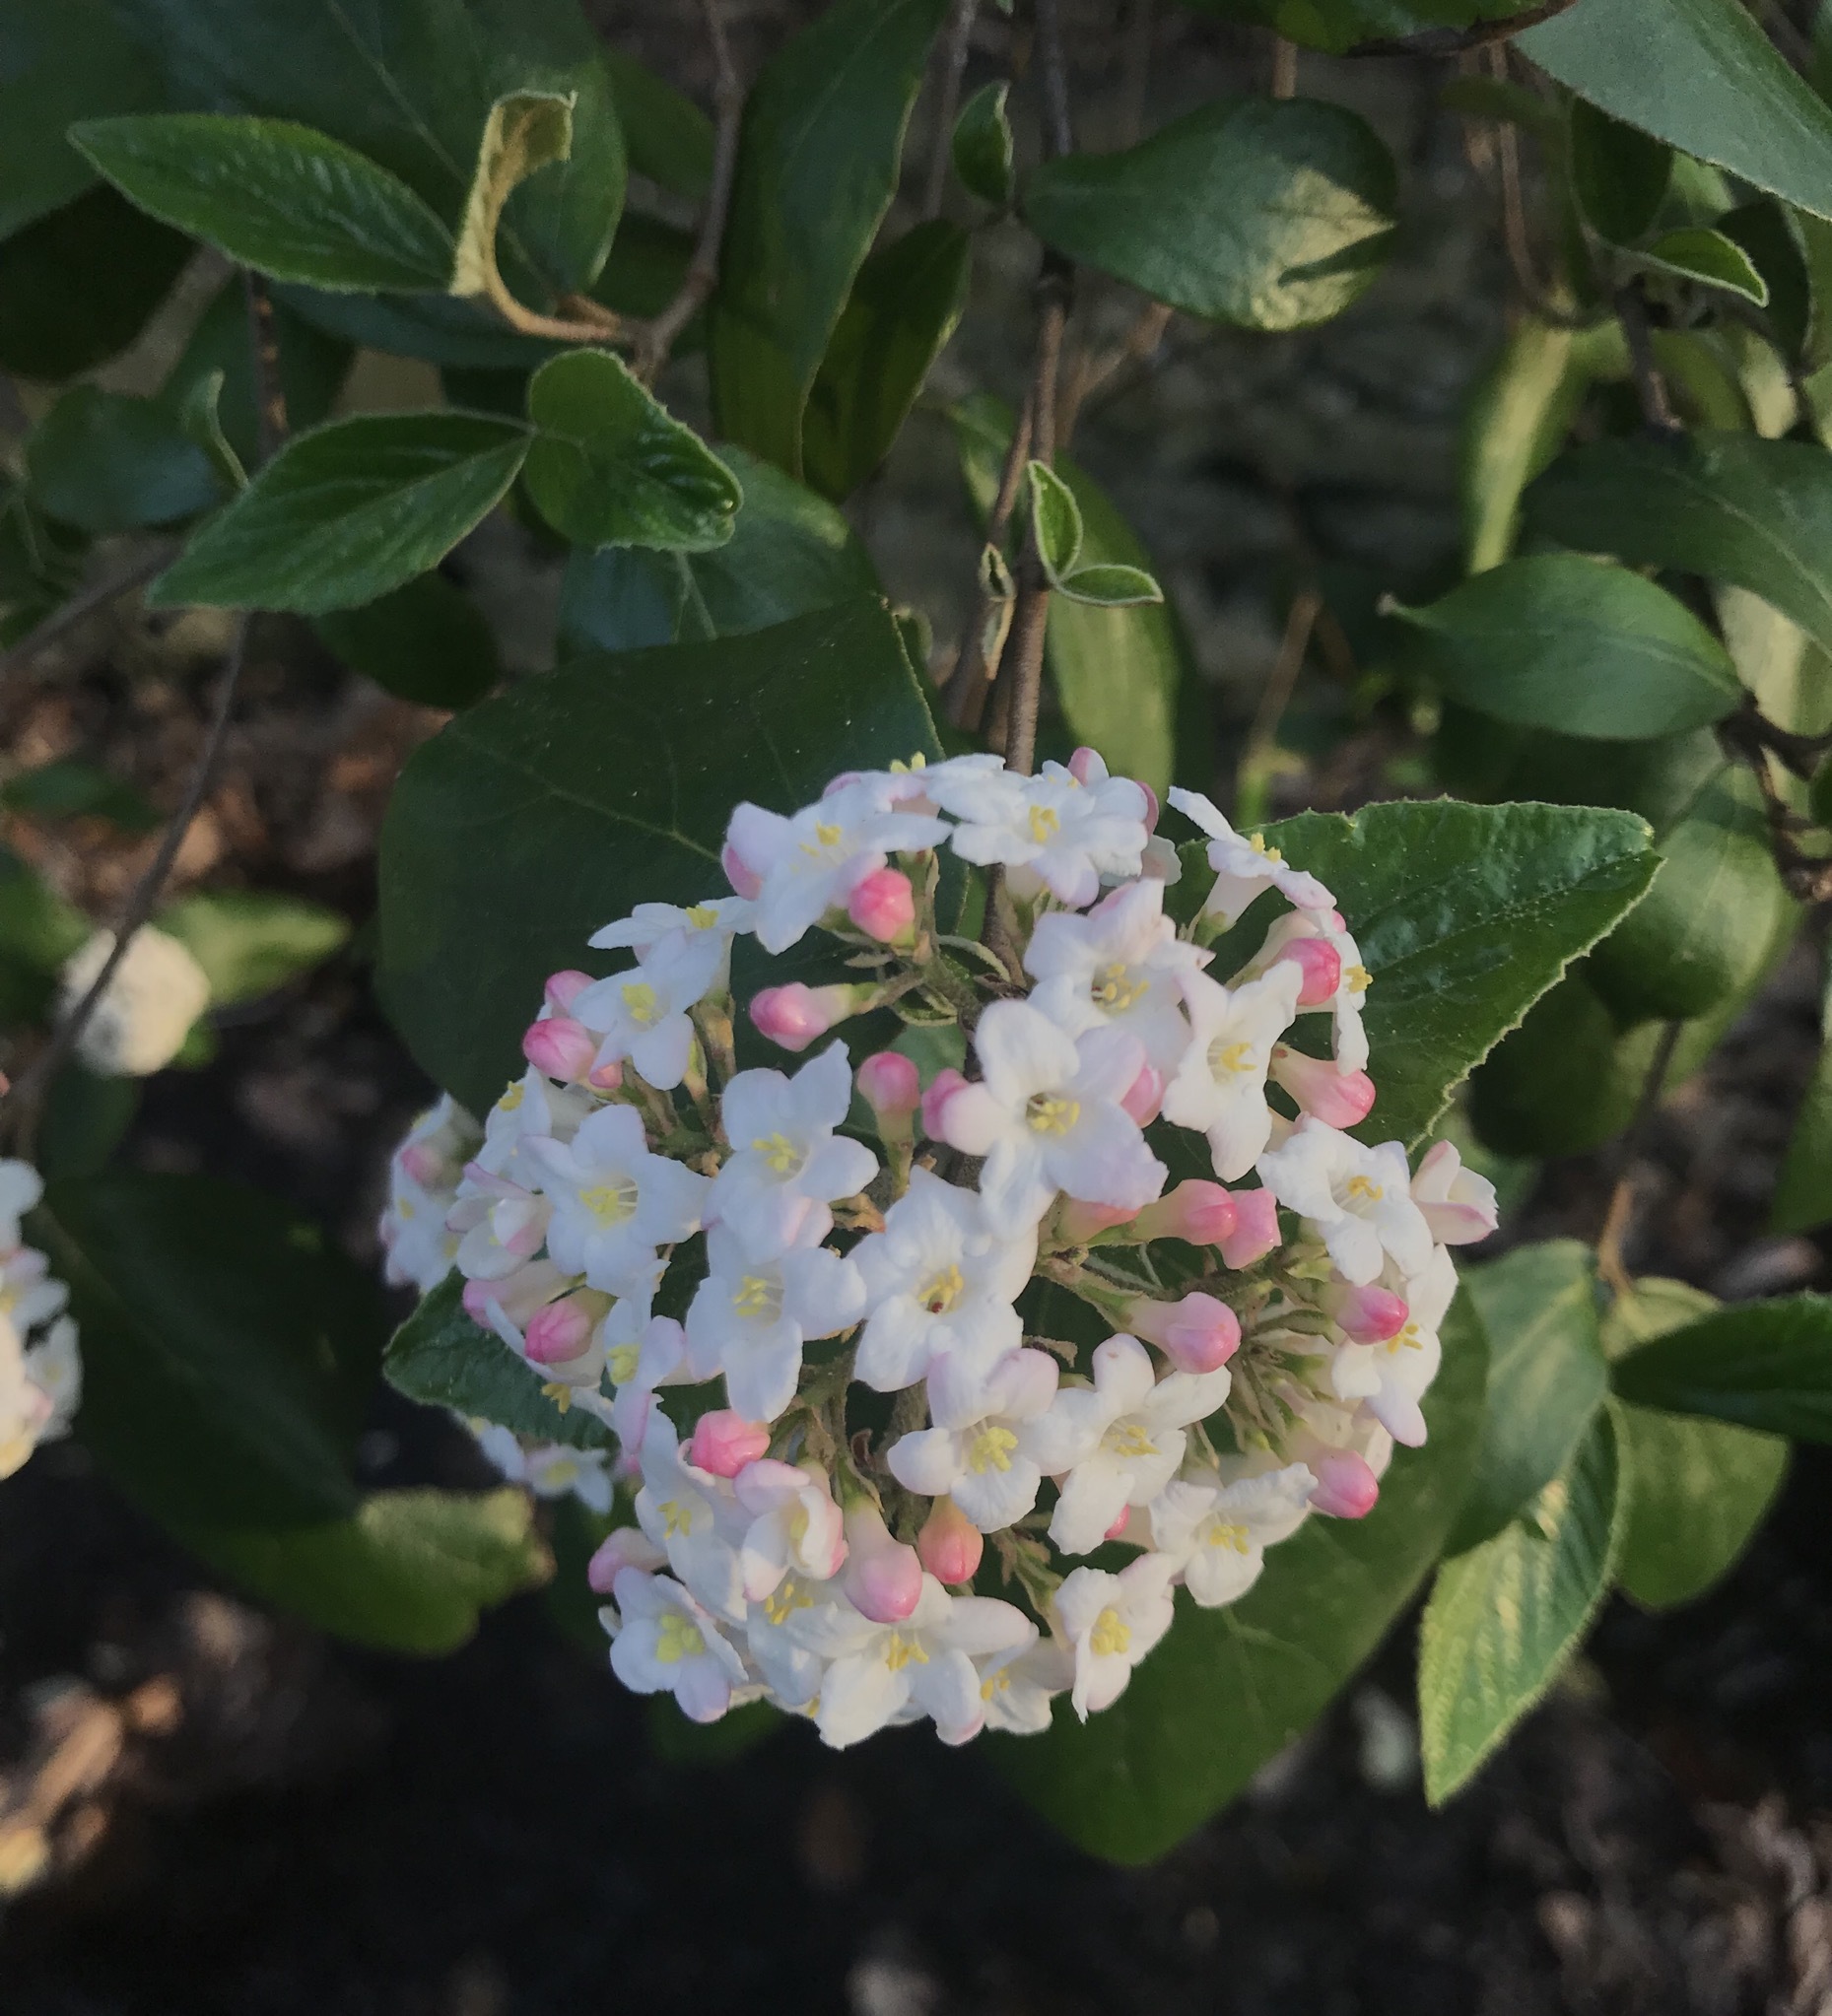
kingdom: Plantae
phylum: Tracheophyta
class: Magnoliopsida
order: Dipsacales
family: Viburnaceae
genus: Viburnum
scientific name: Viburnum carlesii
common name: Koreanspice viburnum
